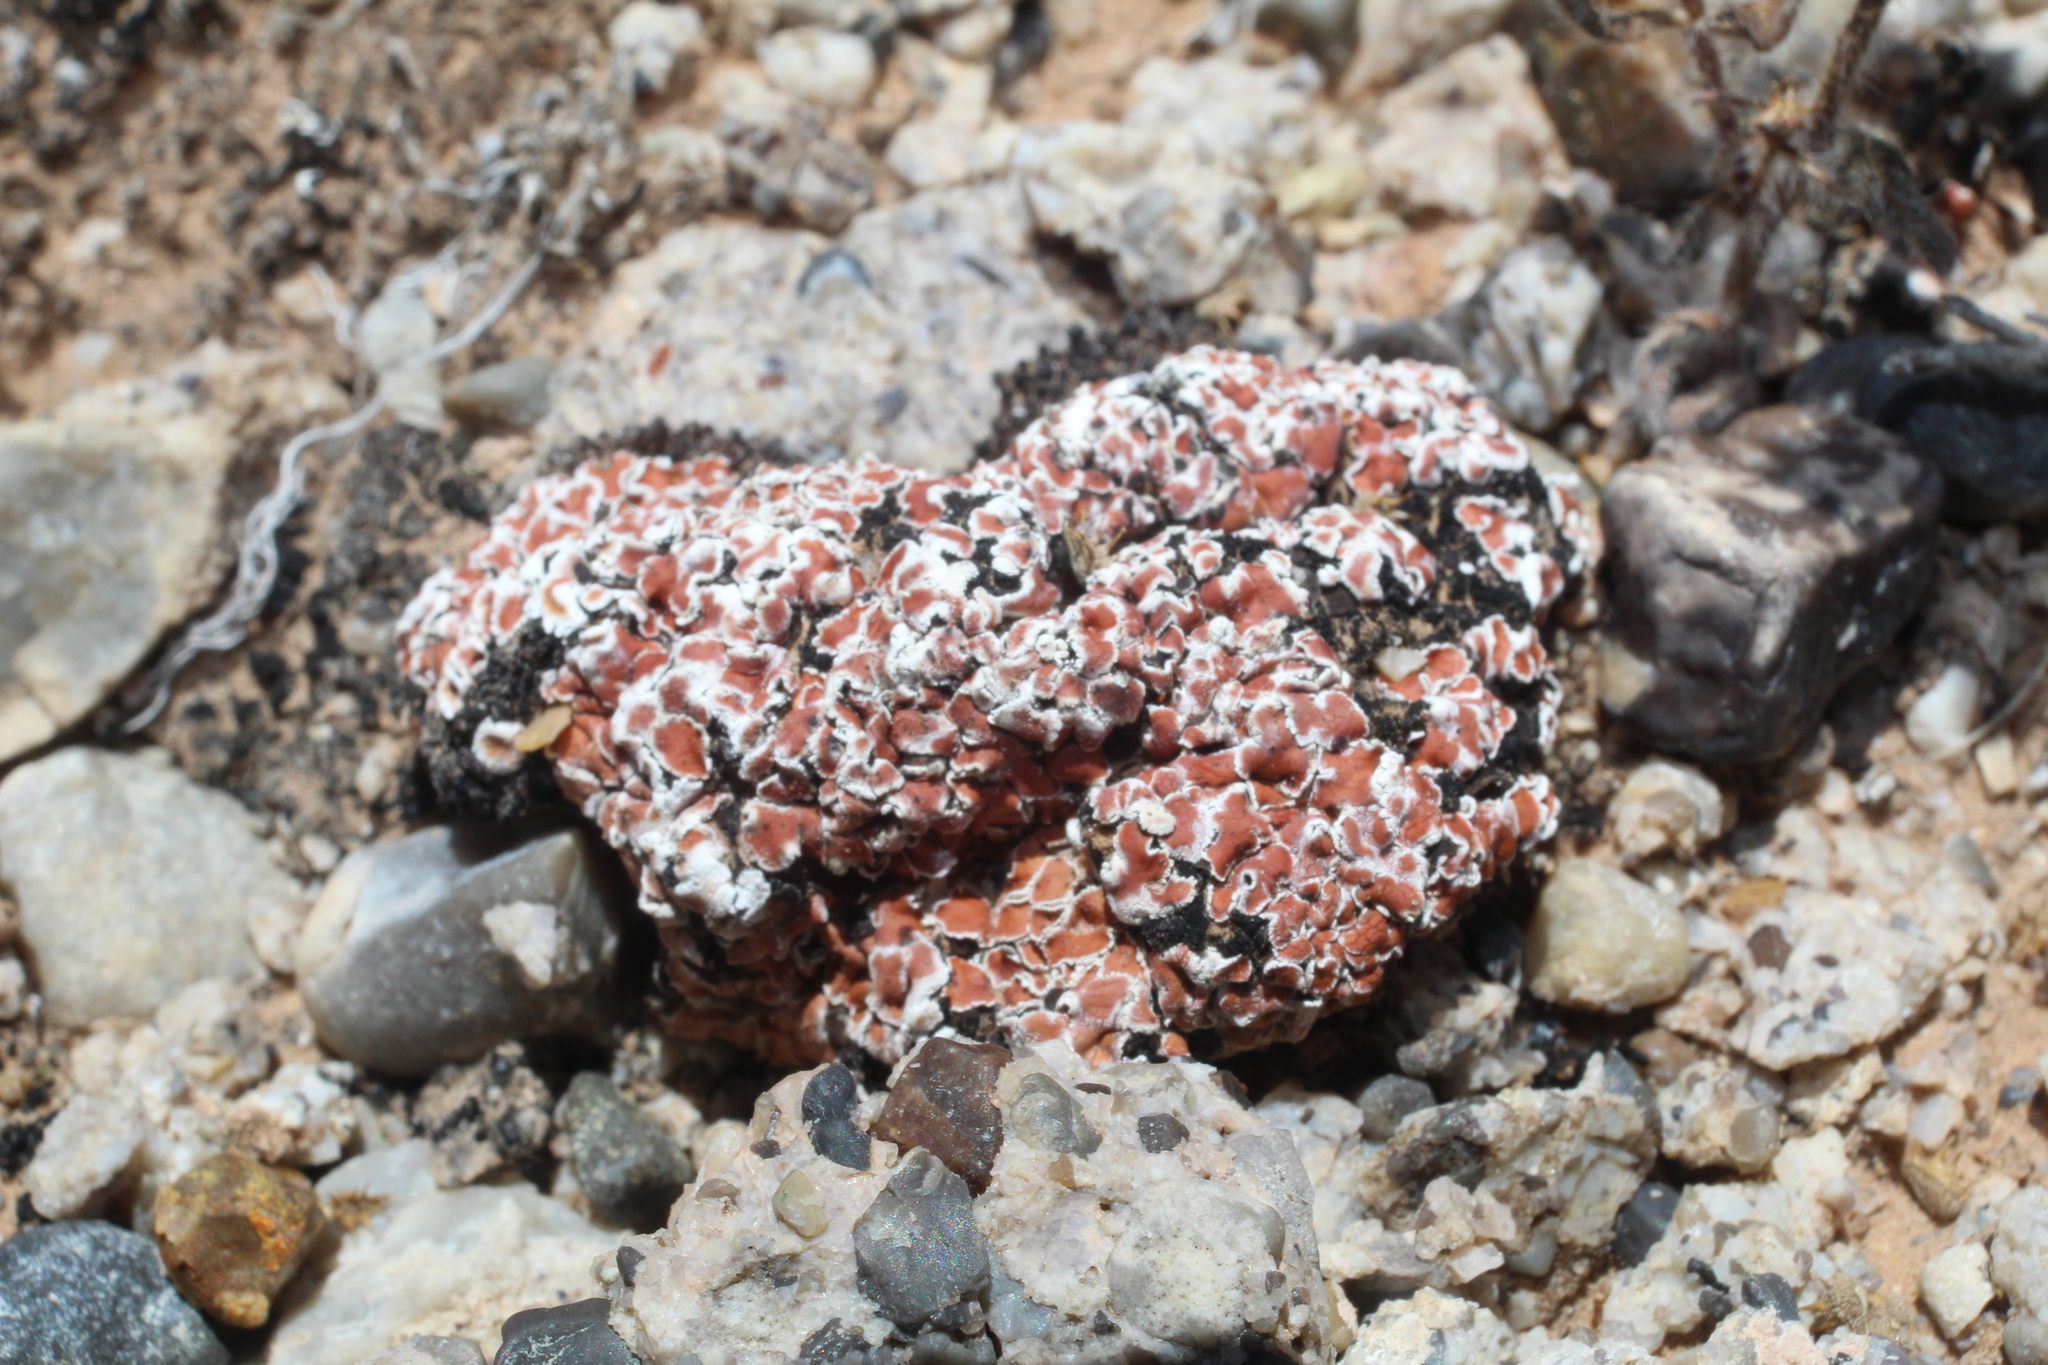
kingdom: Fungi
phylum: Ascomycota
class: Lecanoromycetes
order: Lecanorales
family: Psoraceae
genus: Psora
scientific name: Psora decipiens
